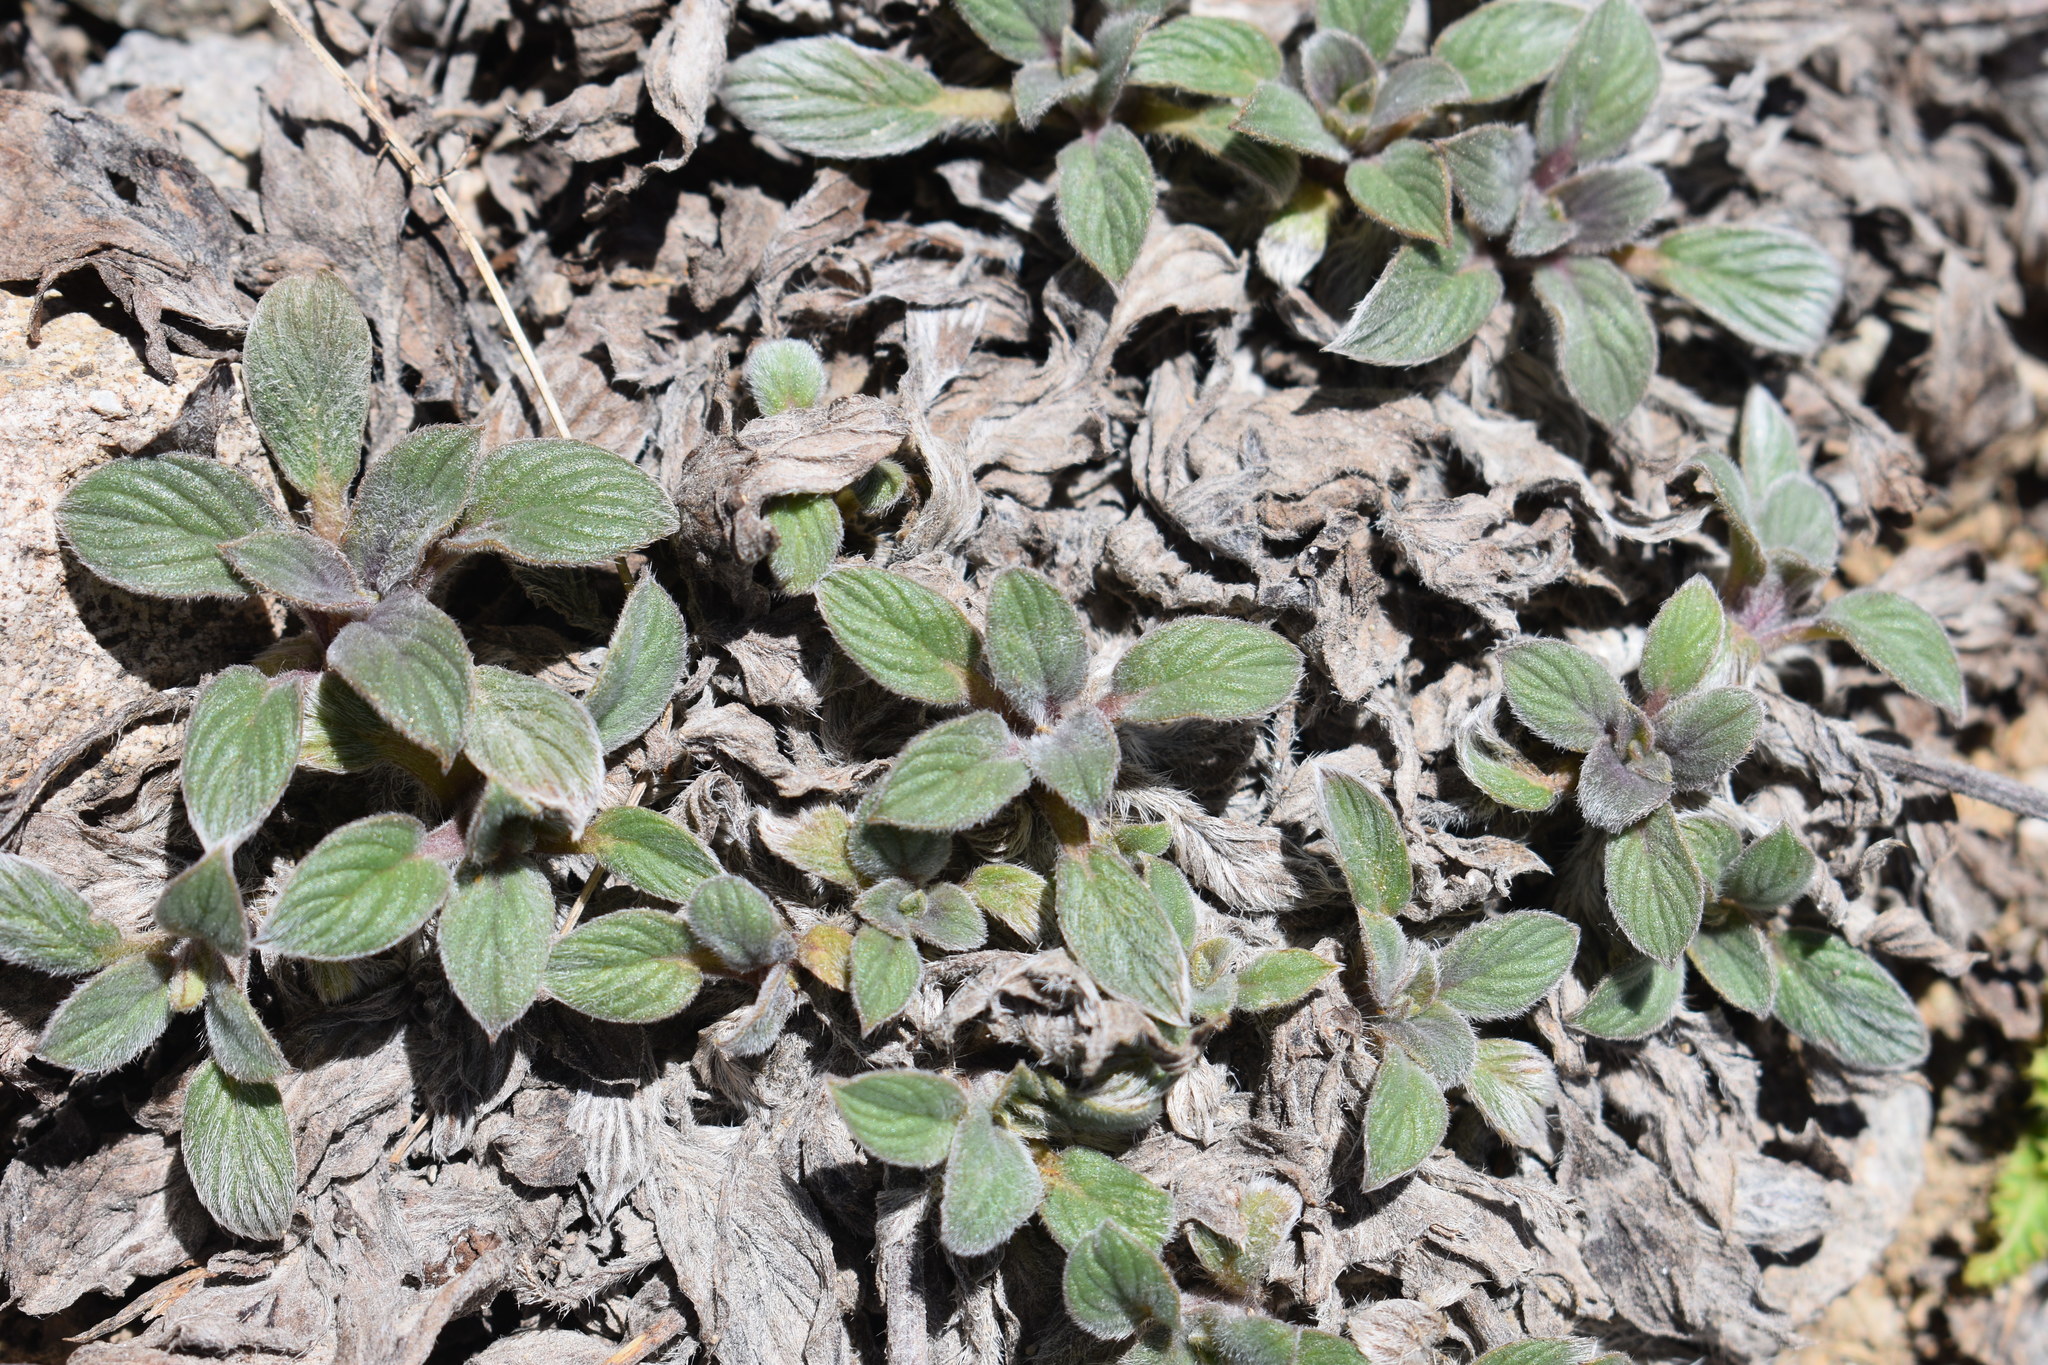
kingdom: Plantae
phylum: Tracheophyta
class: Magnoliopsida
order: Boraginales
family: Hydrophyllaceae
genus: Phacelia
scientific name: Phacelia hastata
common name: Silver-leaved phacelia
